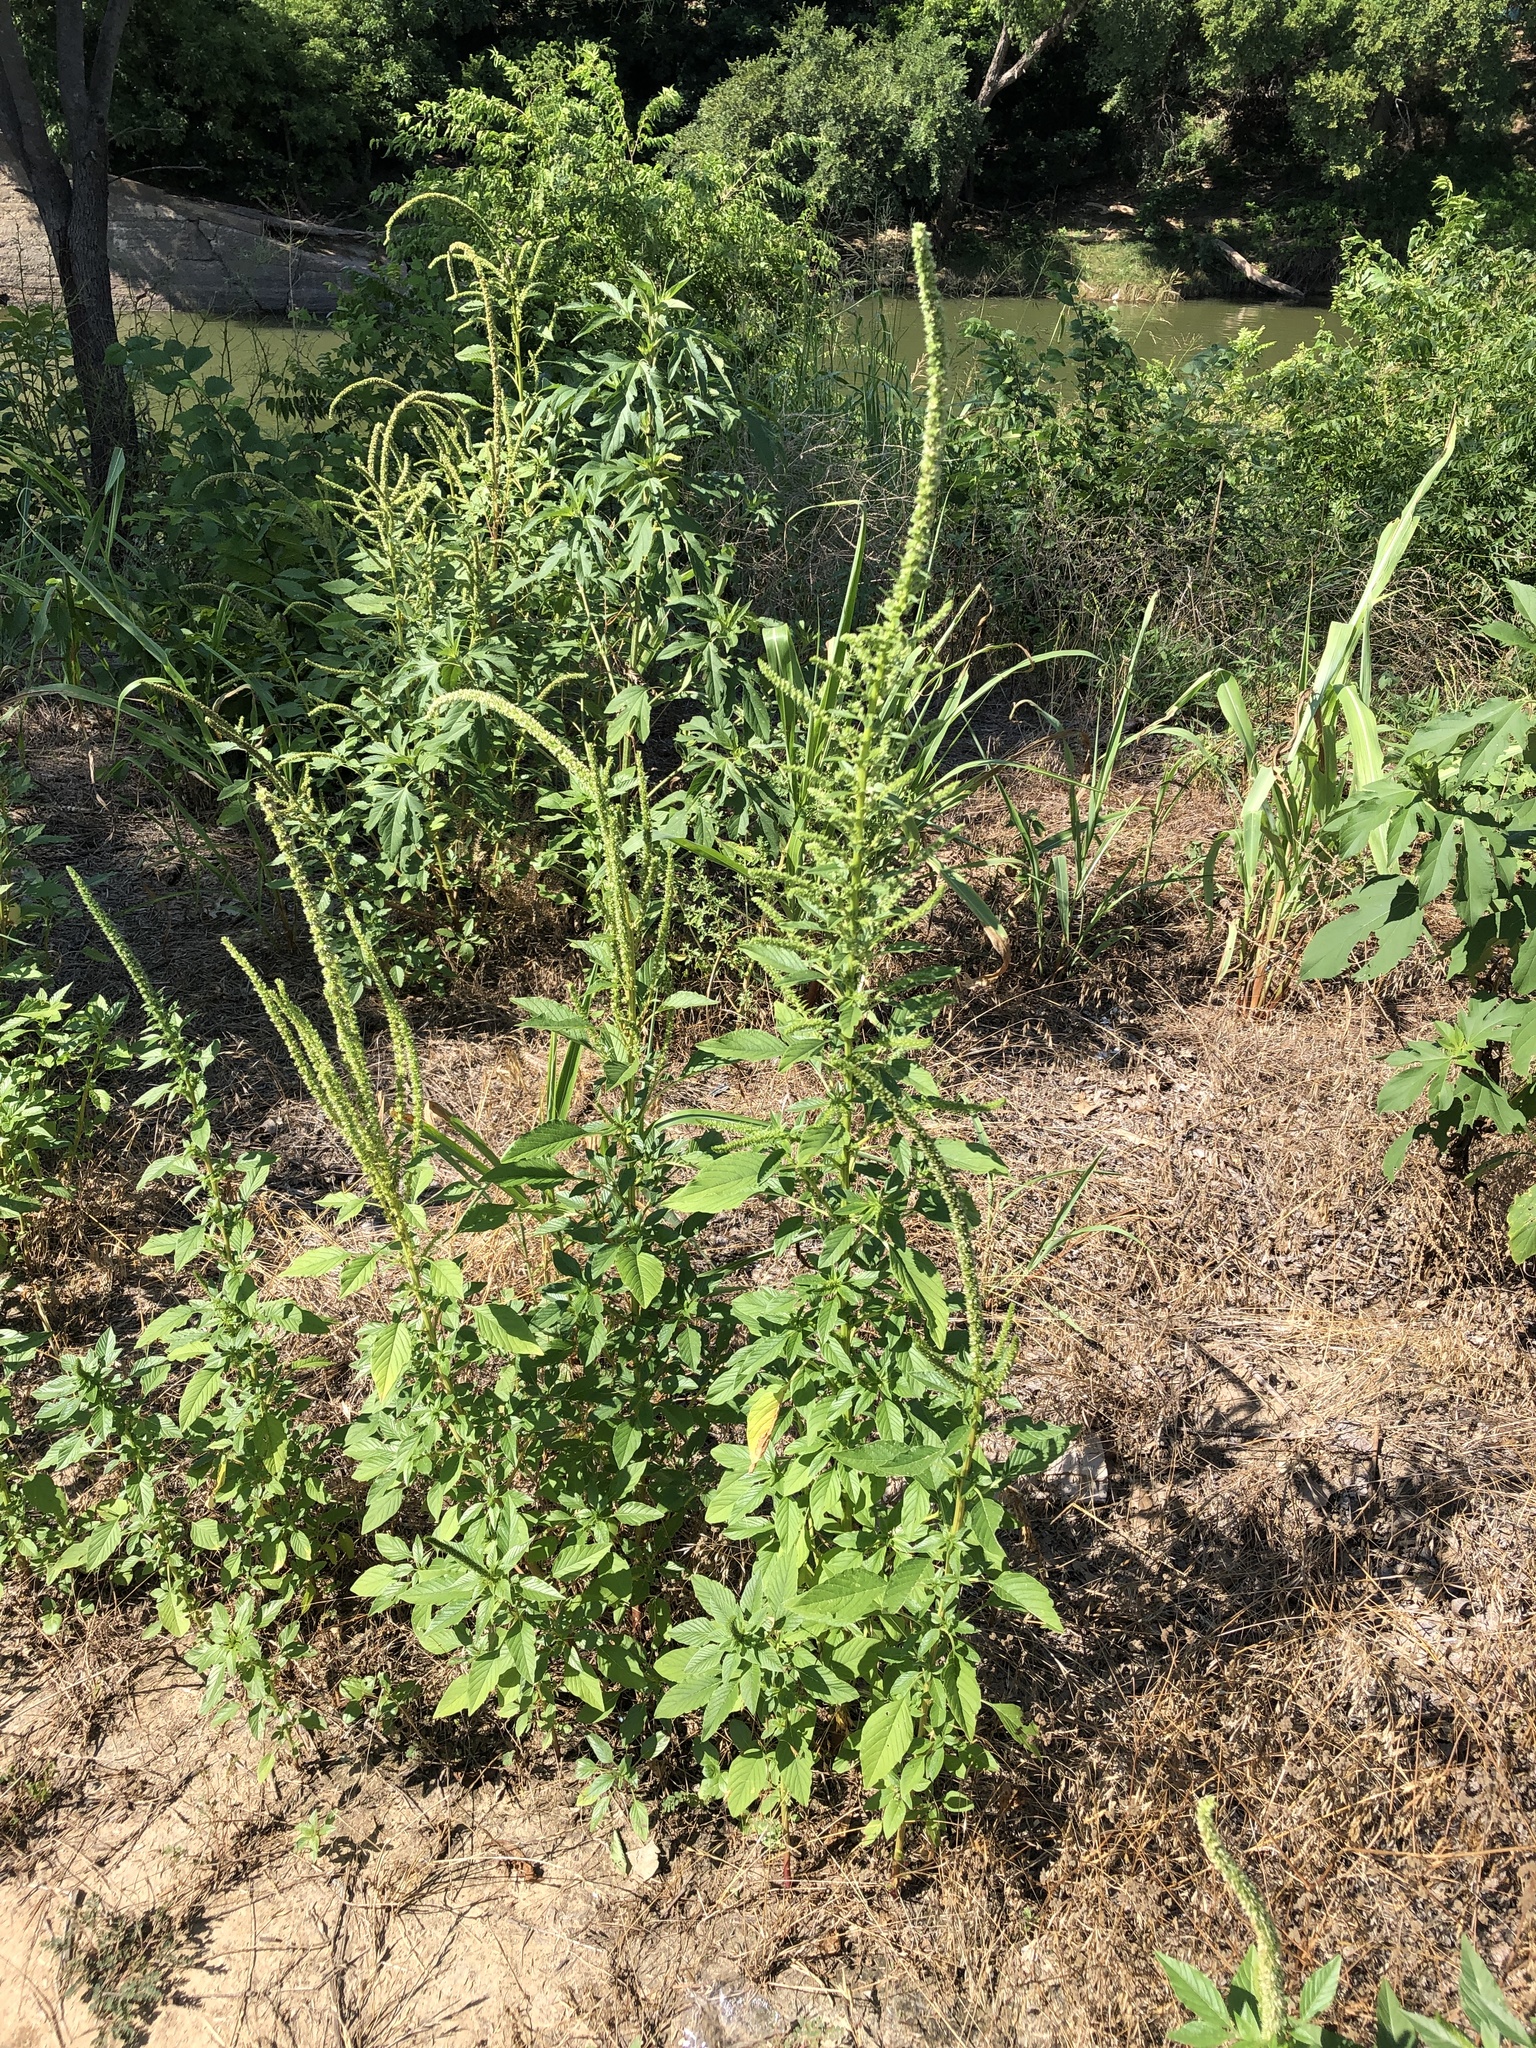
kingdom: Plantae
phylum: Tracheophyta
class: Magnoliopsida
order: Caryophyllales
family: Amaranthaceae
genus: Amaranthus
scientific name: Amaranthus palmeri
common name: Dioecious amaranth
